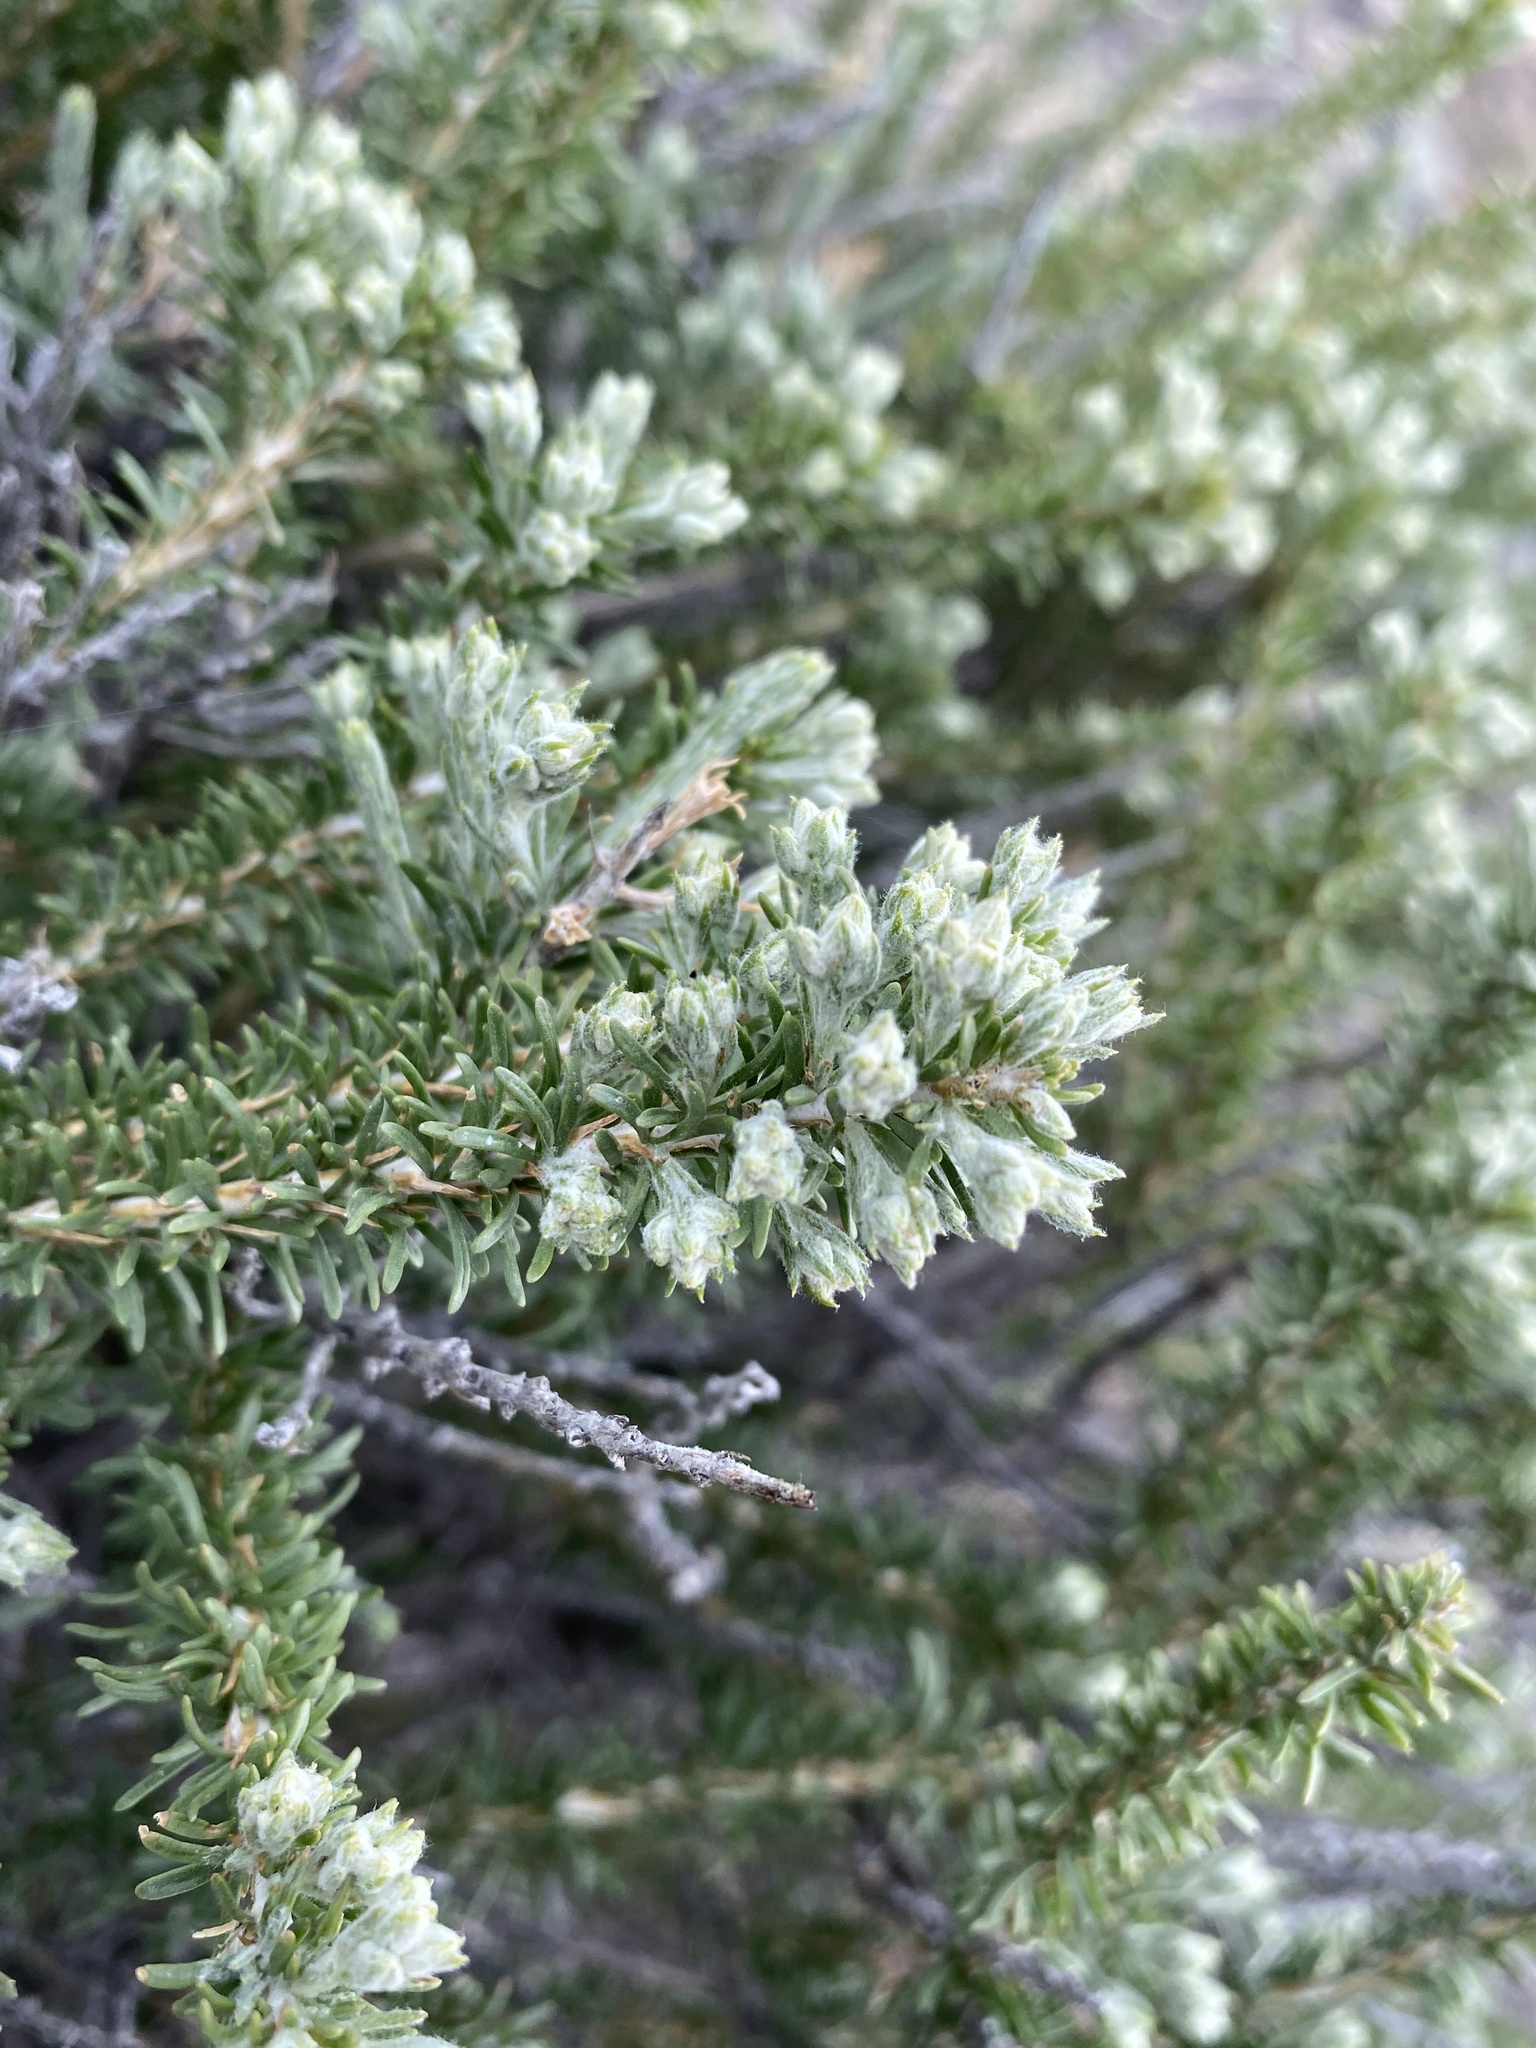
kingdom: Plantae
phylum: Tracheophyta
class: Magnoliopsida
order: Asterales
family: Asteraceae
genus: Tetradymia
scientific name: Tetradymia glabrata
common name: Smooth tetradymia
